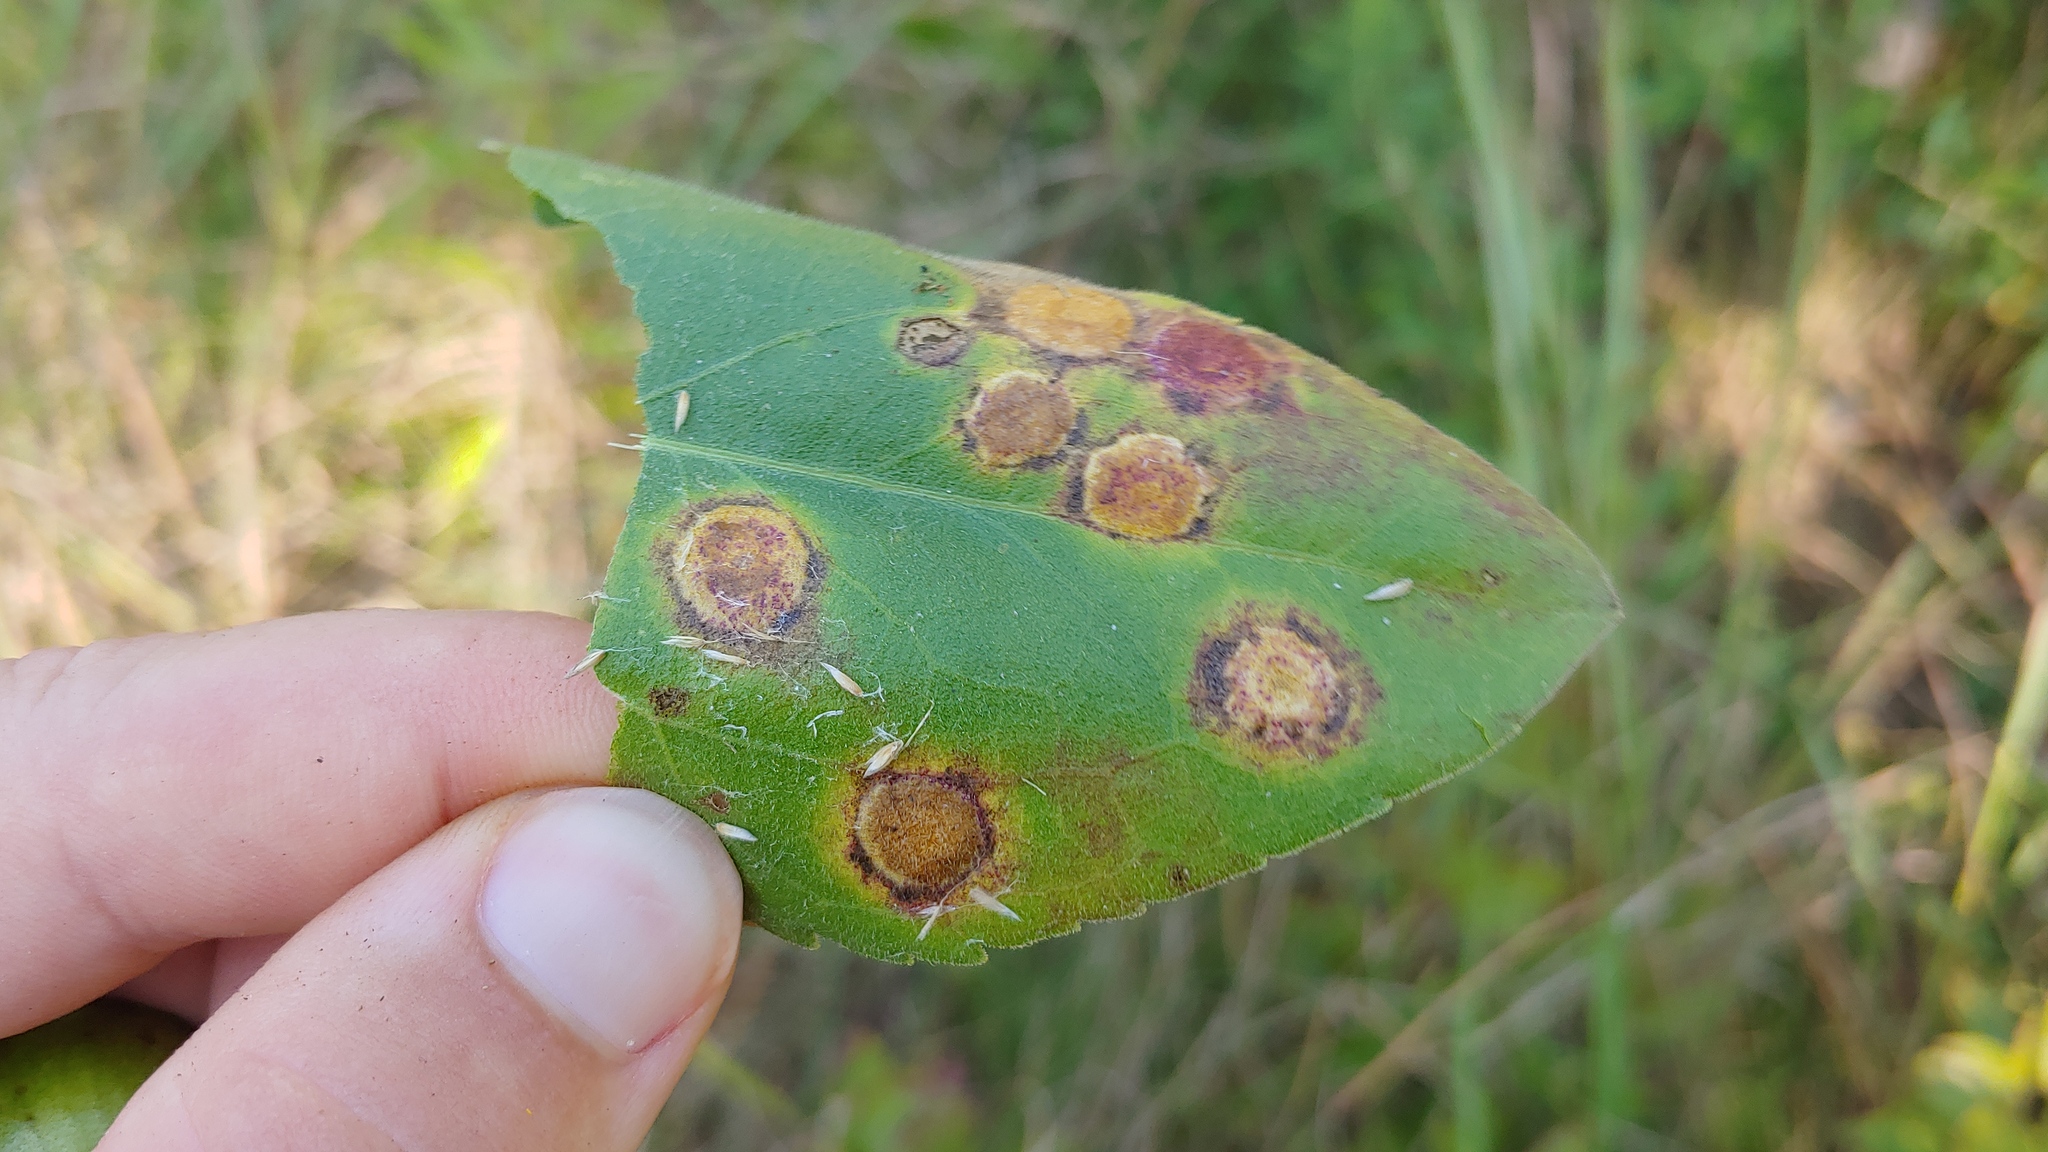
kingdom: Animalia
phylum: Arthropoda
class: Insecta
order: Diptera
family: Cecidomyiidae
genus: Asteromyia
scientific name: Asteromyia carbonifera
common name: Carbonifera goldenrod gall midge
